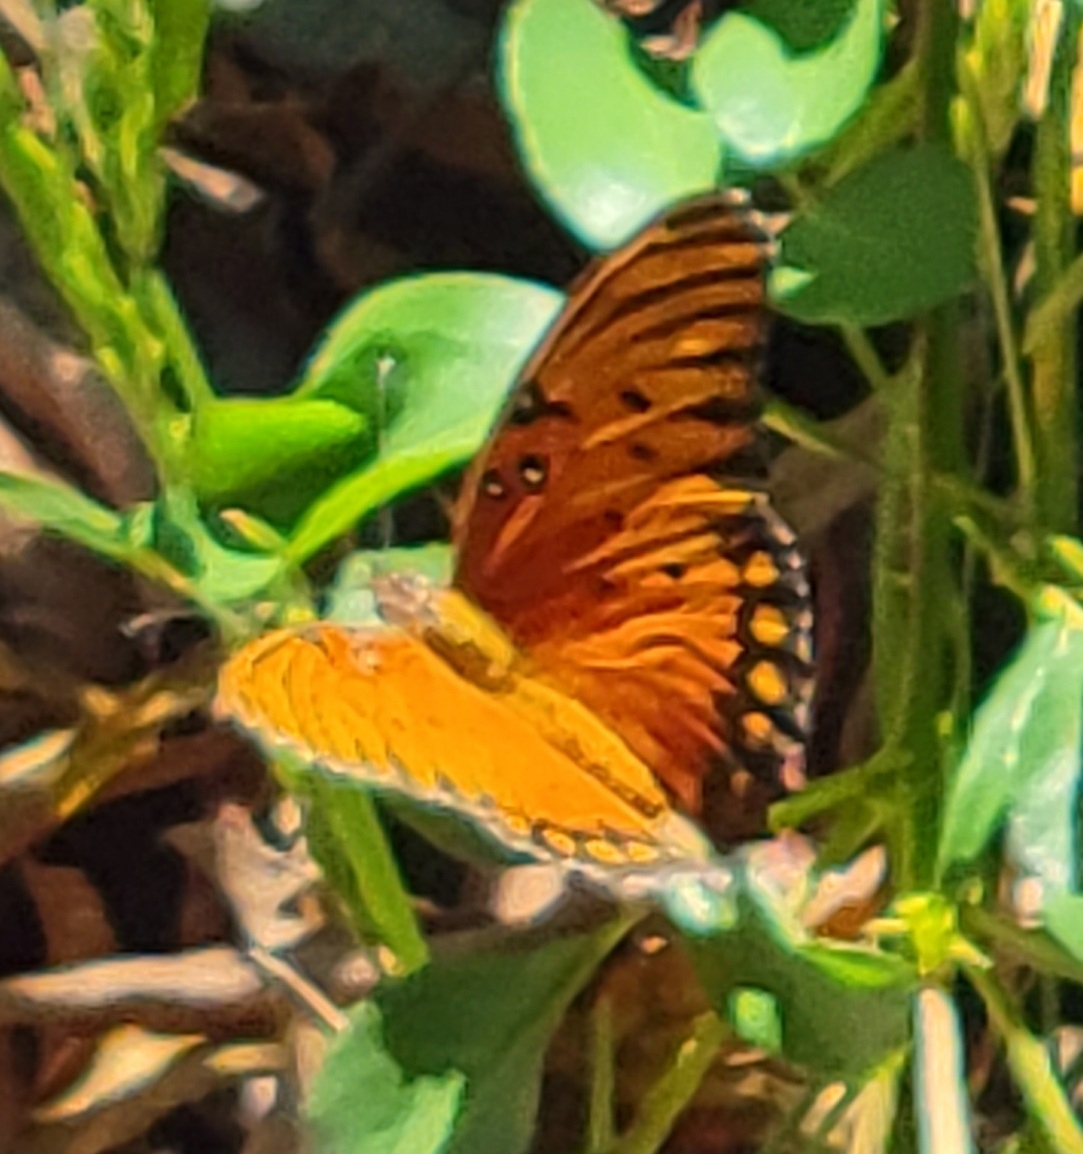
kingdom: Animalia
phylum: Arthropoda
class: Insecta
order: Lepidoptera
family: Nymphalidae
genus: Dione
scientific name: Dione vanillae
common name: Gulf fritillary
